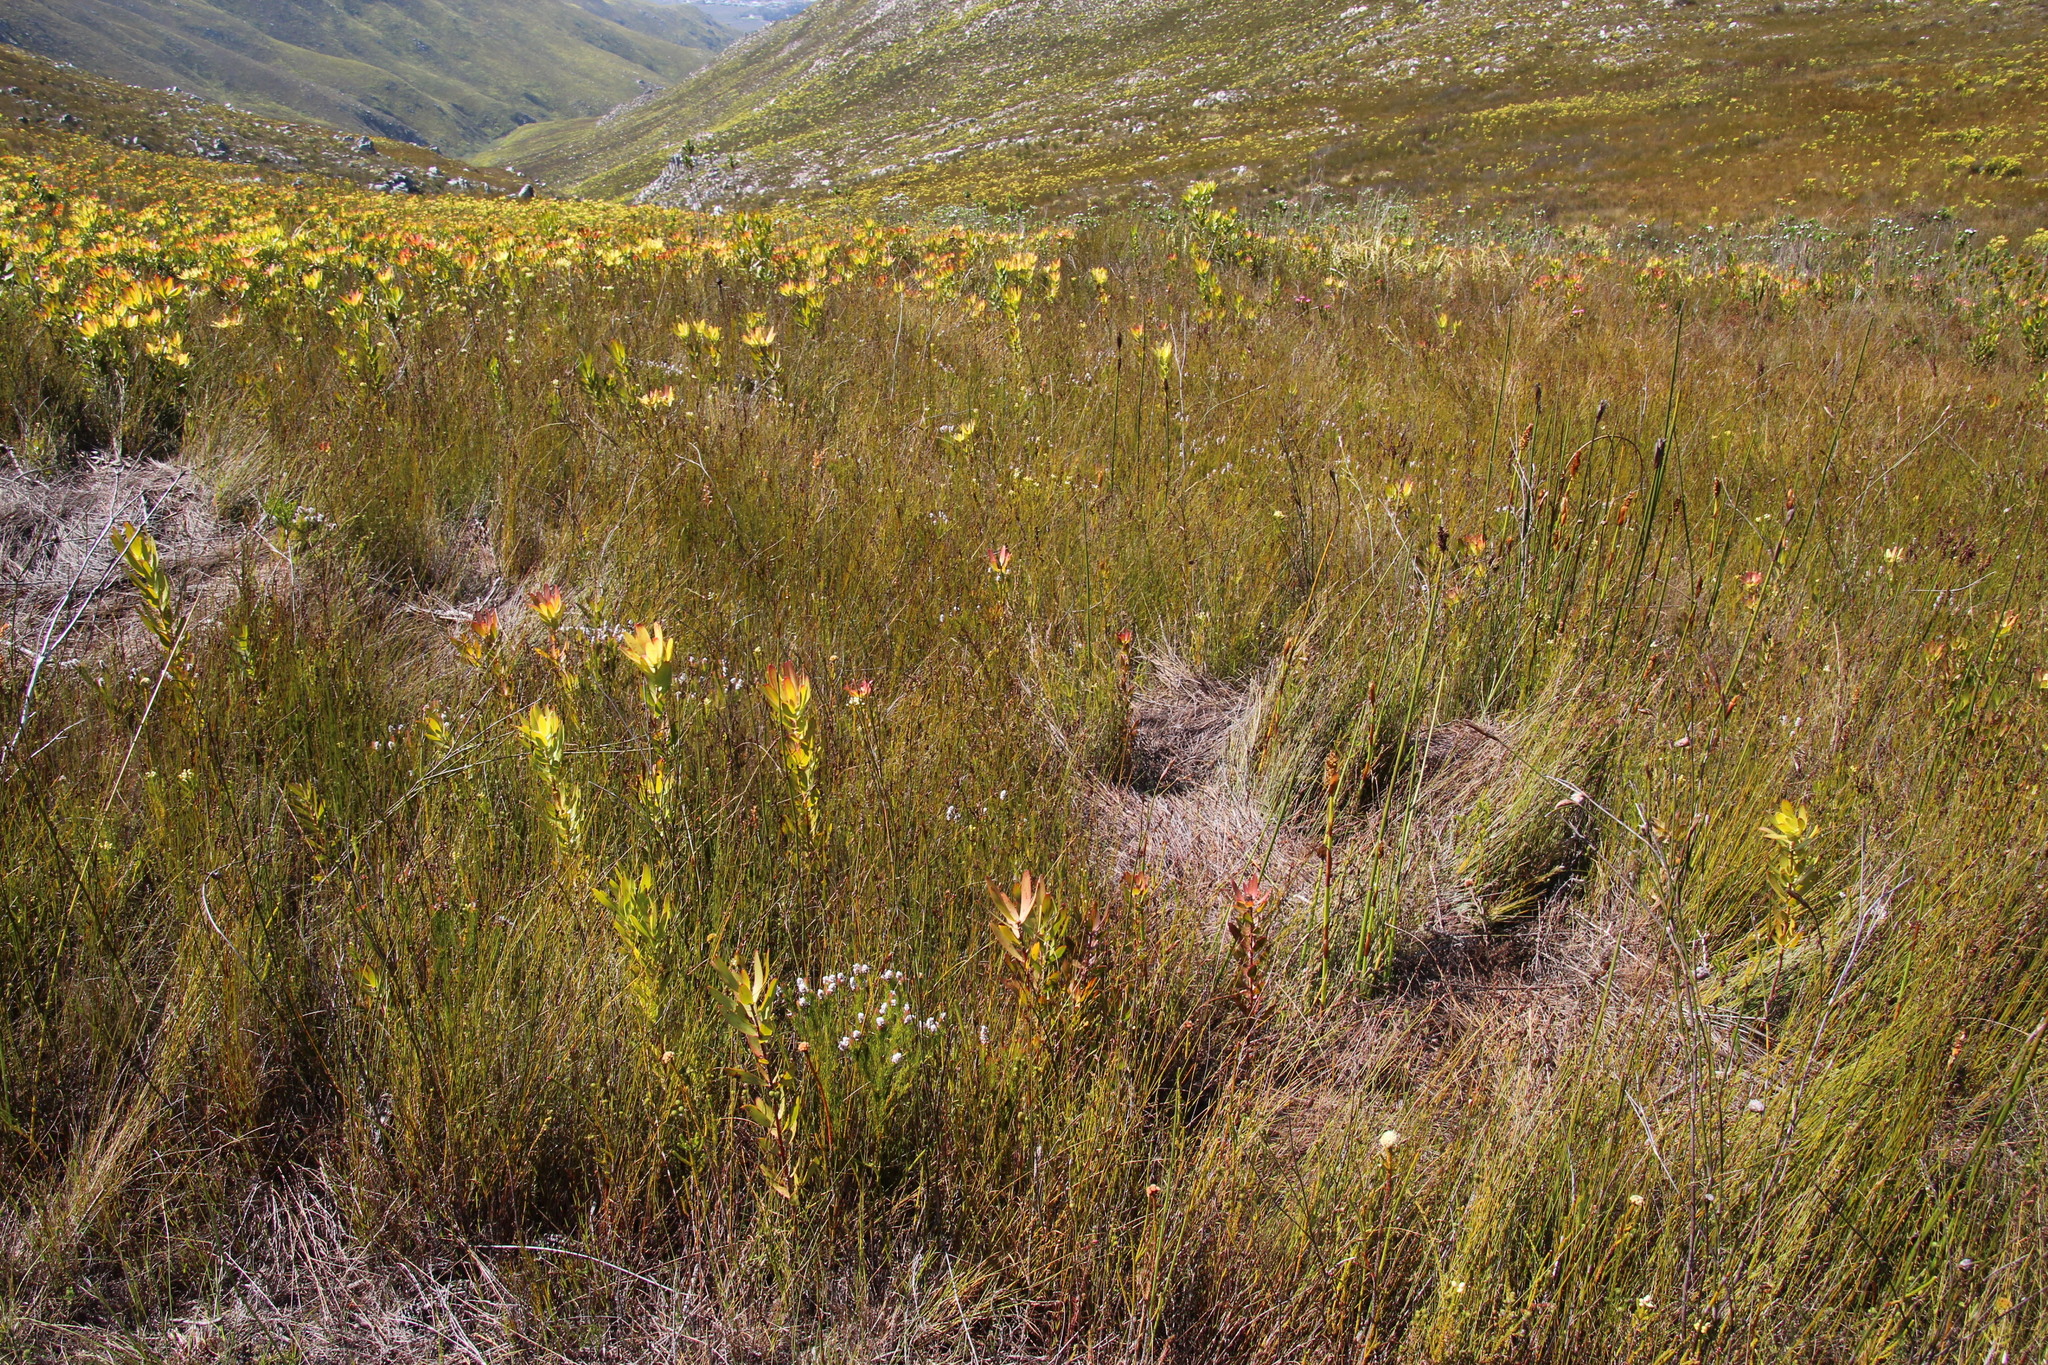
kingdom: Plantae
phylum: Tracheophyta
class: Magnoliopsida
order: Proteales
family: Proteaceae
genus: Spatalla
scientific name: Spatalla mollis
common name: Woolly spoon
